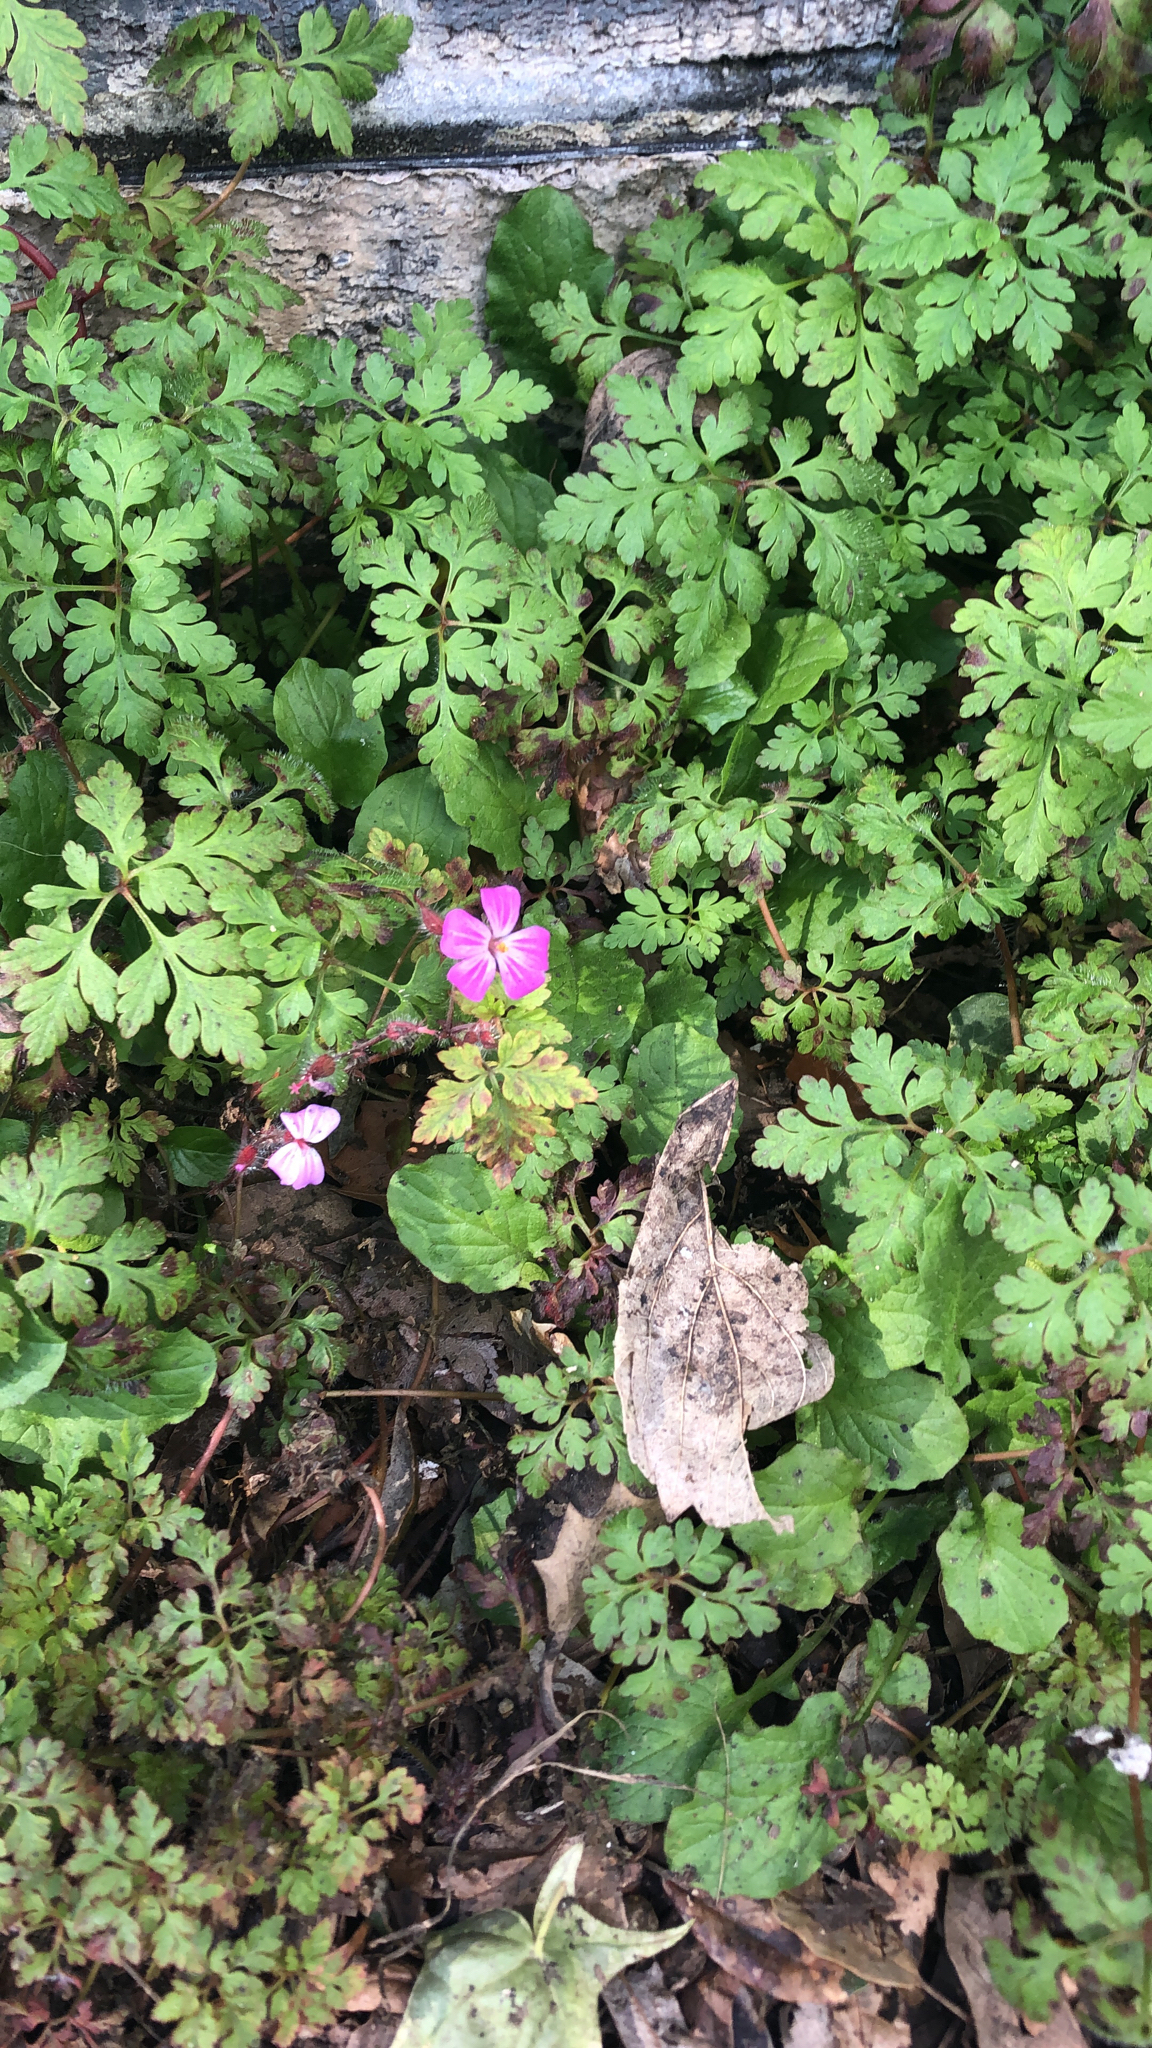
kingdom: Plantae
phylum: Tracheophyta
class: Magnoliopsida
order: Geraniales
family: Geraniaceae
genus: Geranium
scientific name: Geranium robertianum
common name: Herb-robert
